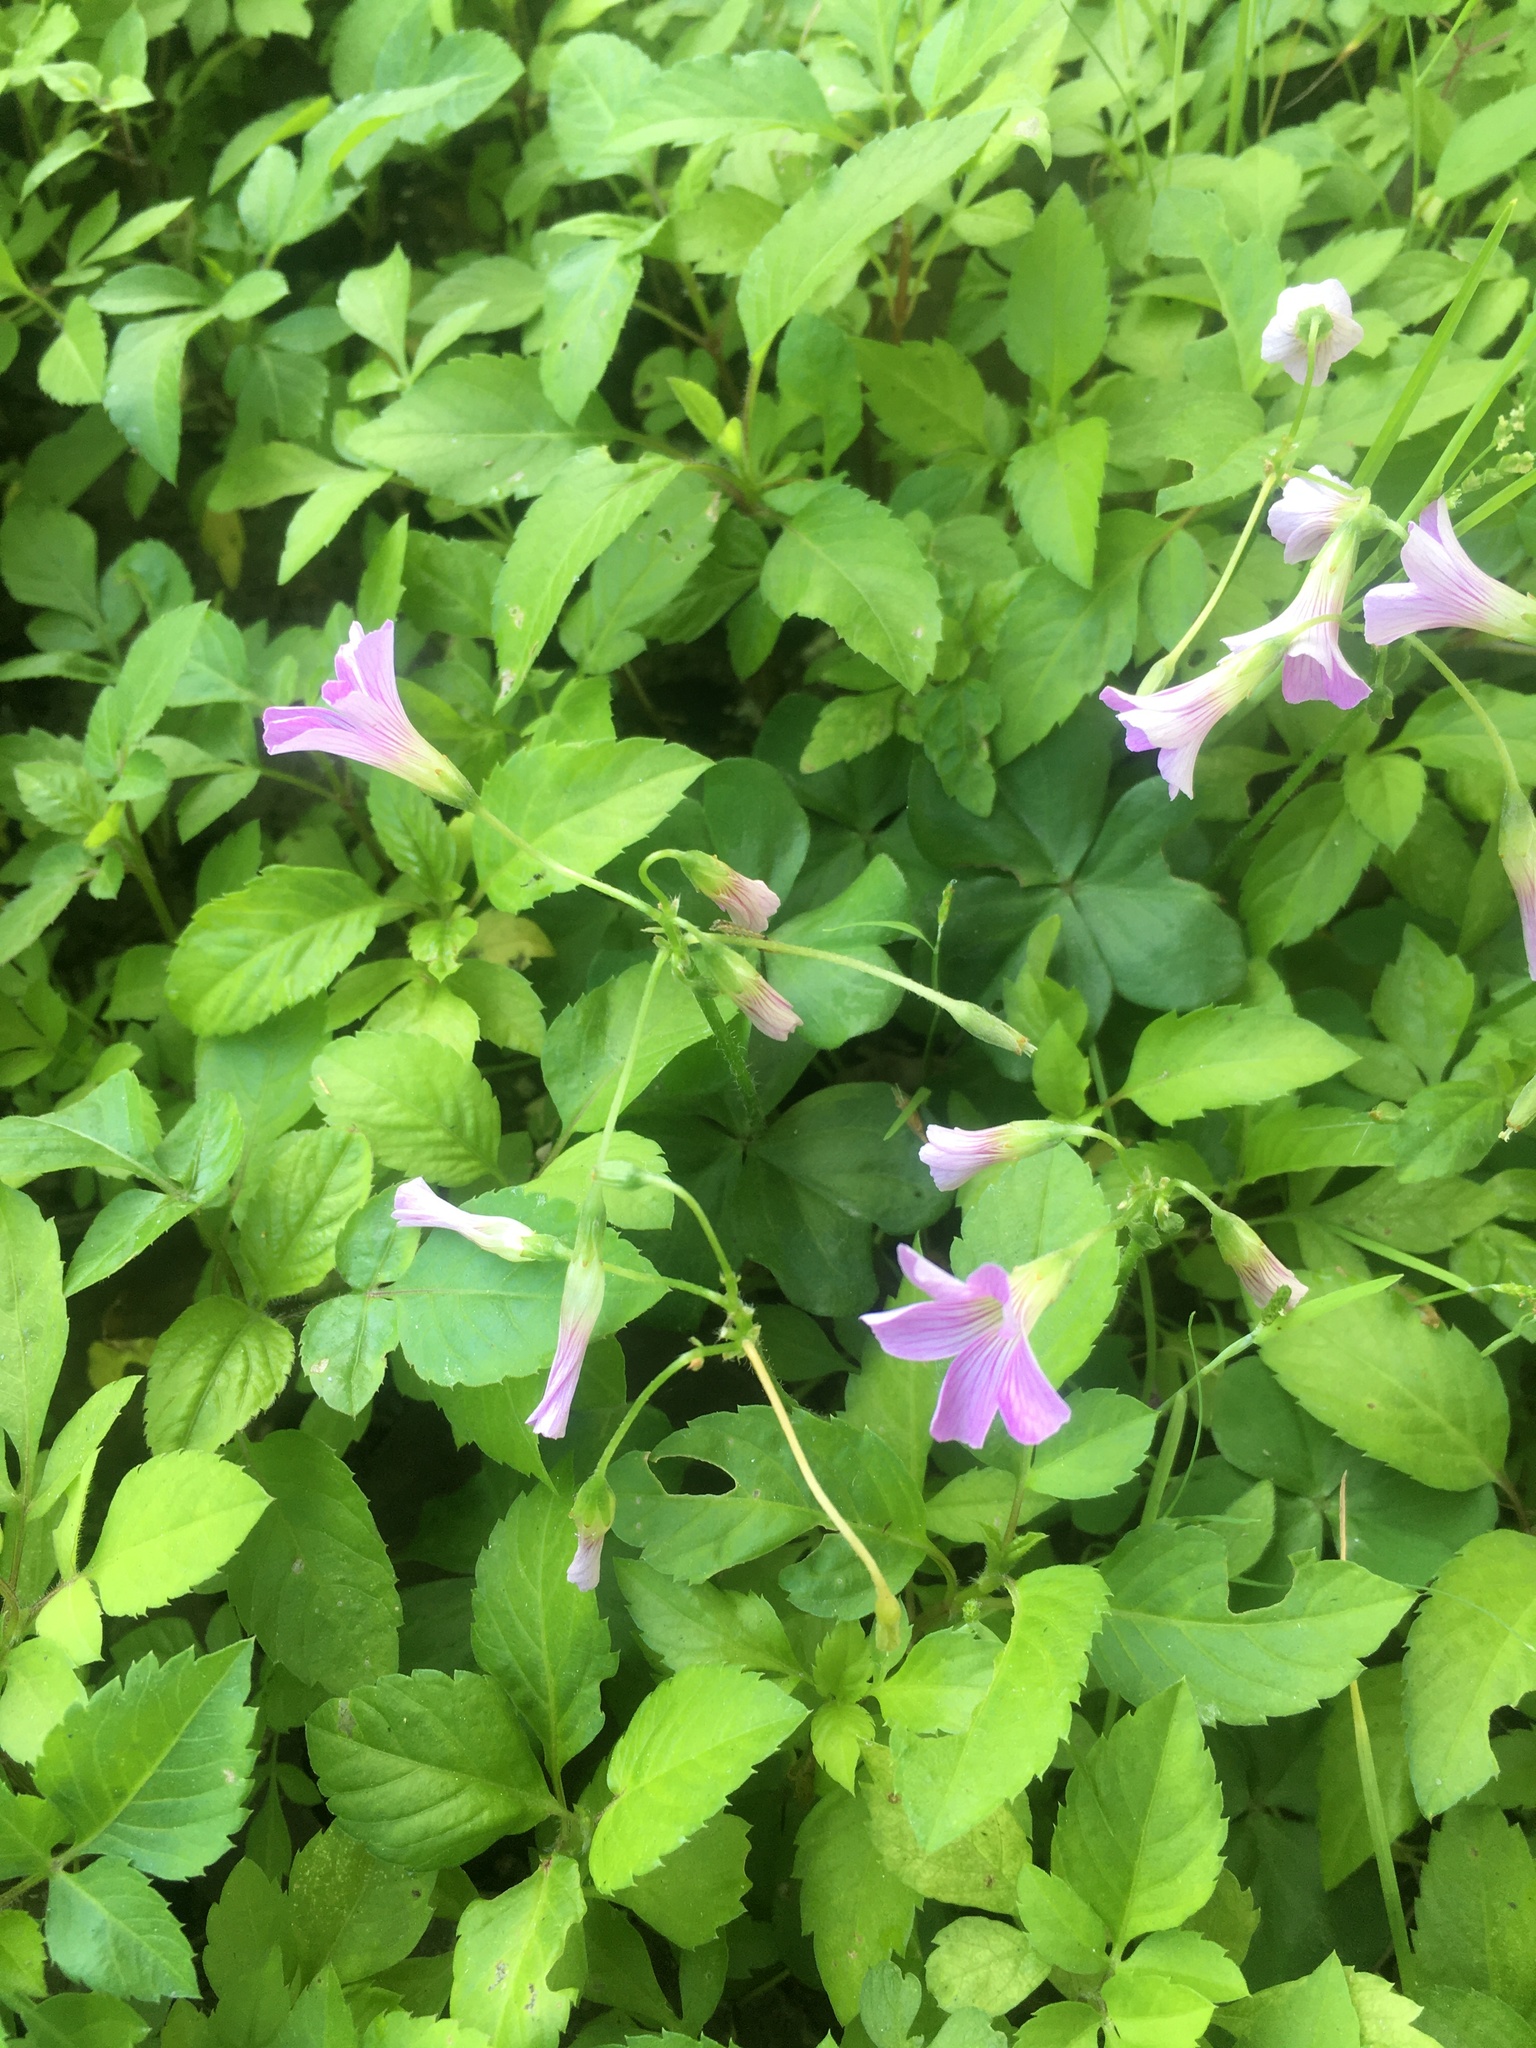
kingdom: Plantae
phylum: Tracheophyta
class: Magnoliopsida
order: Oxalidales
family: Oxalidaceae
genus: Oxalis
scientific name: Oxalis debilis
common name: Large-flowered pink-sorrel
